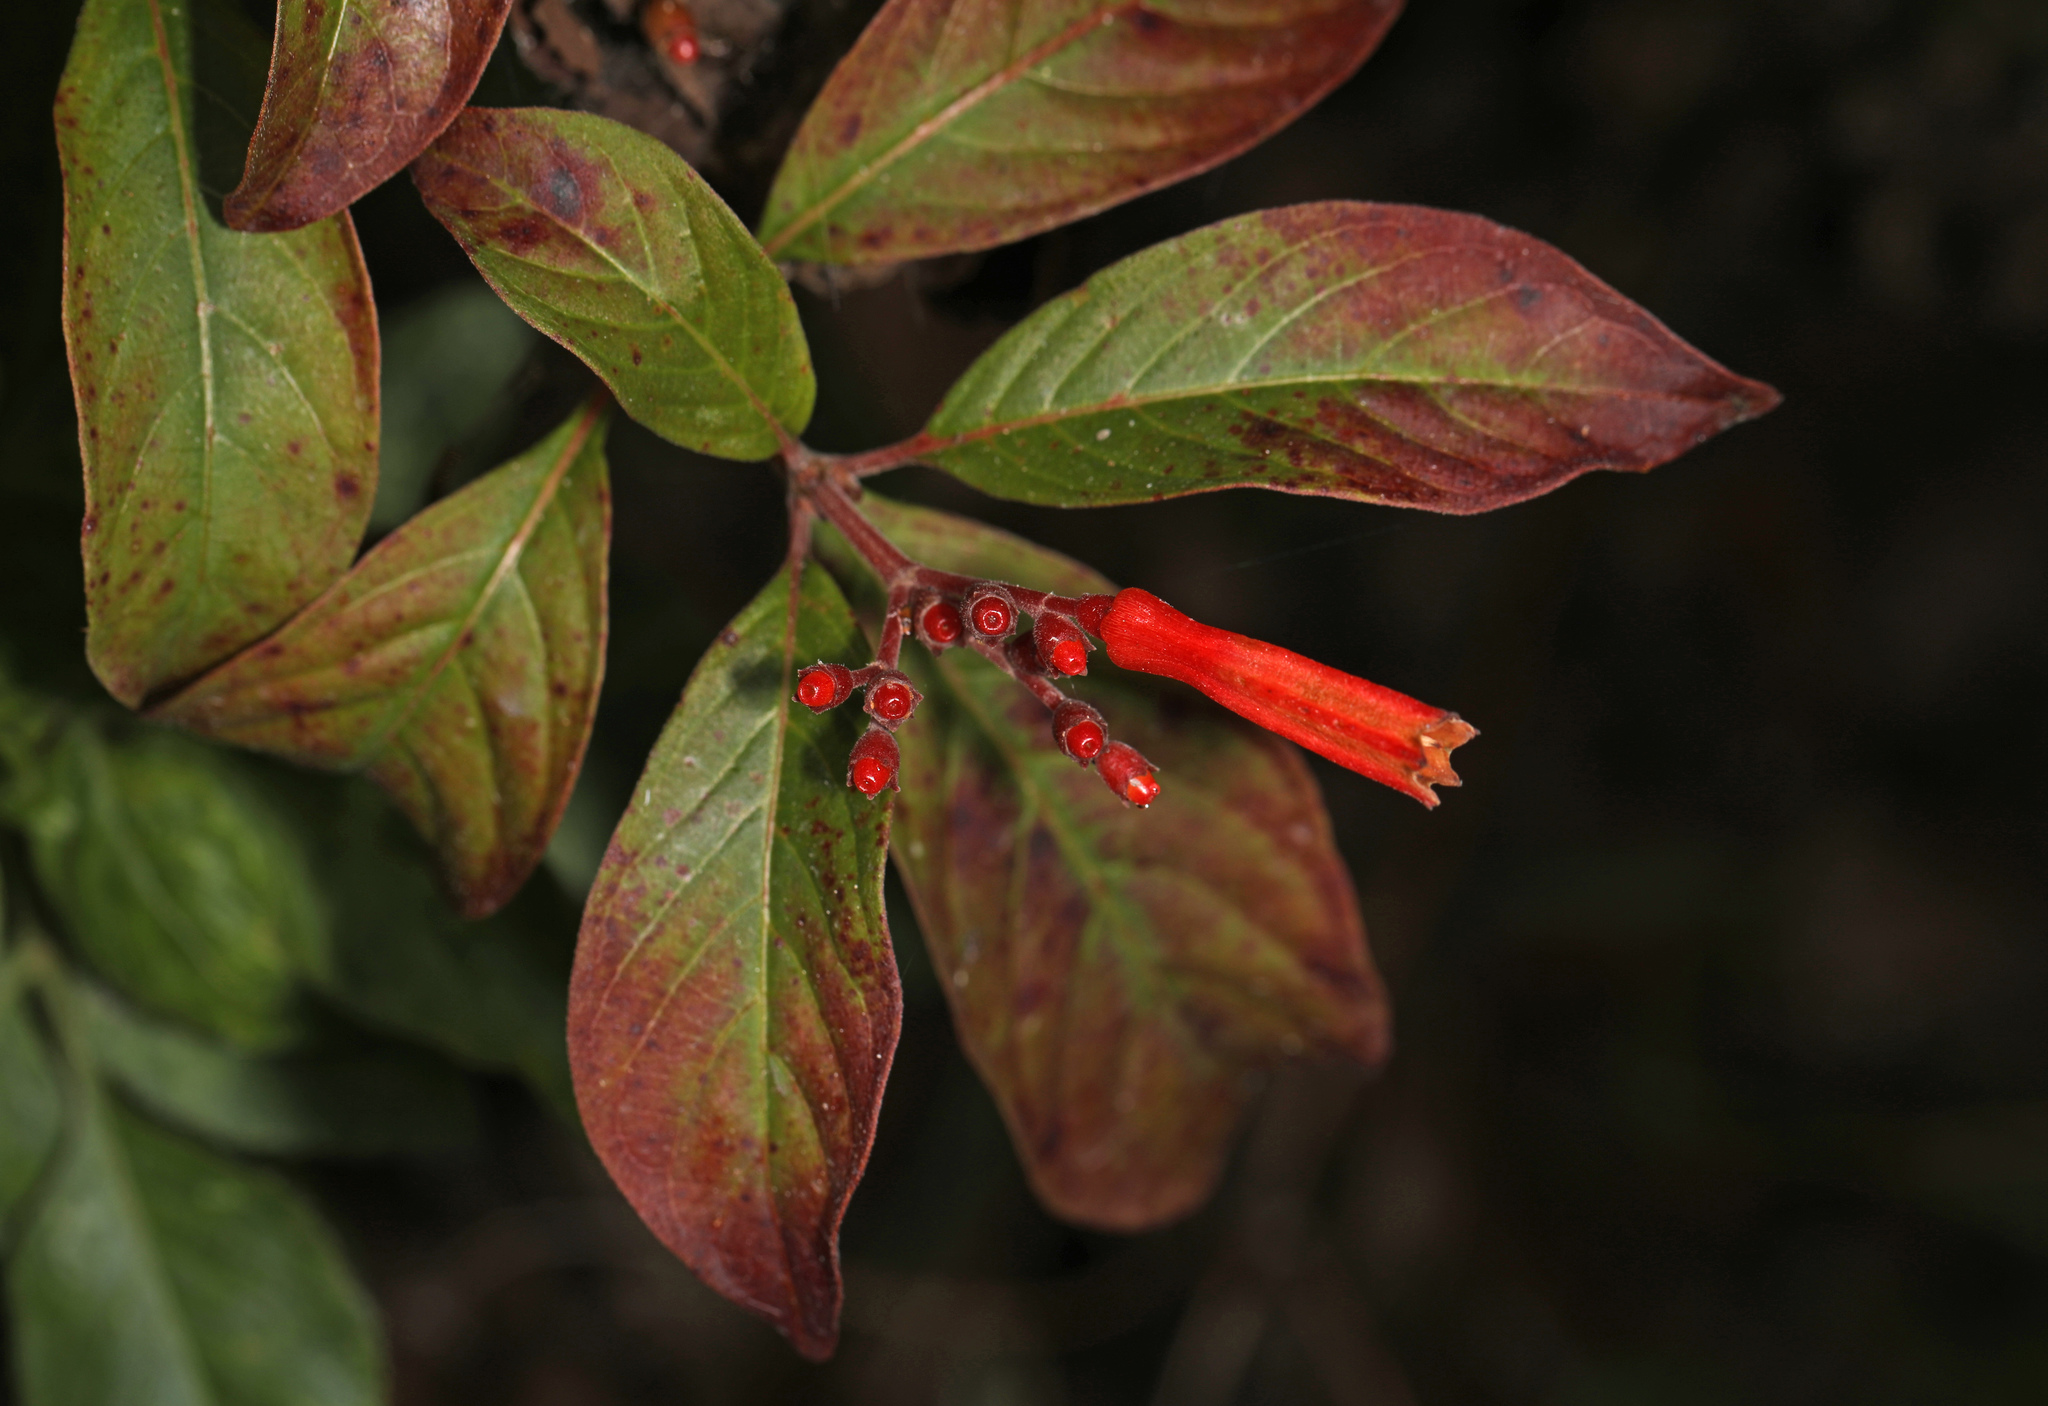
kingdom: Plantae
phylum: Tracheophyta
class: Magnoliopsida
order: Gentianales
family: Rubiaceae
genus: Hamelia
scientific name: Hamelia patens
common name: Redhead
